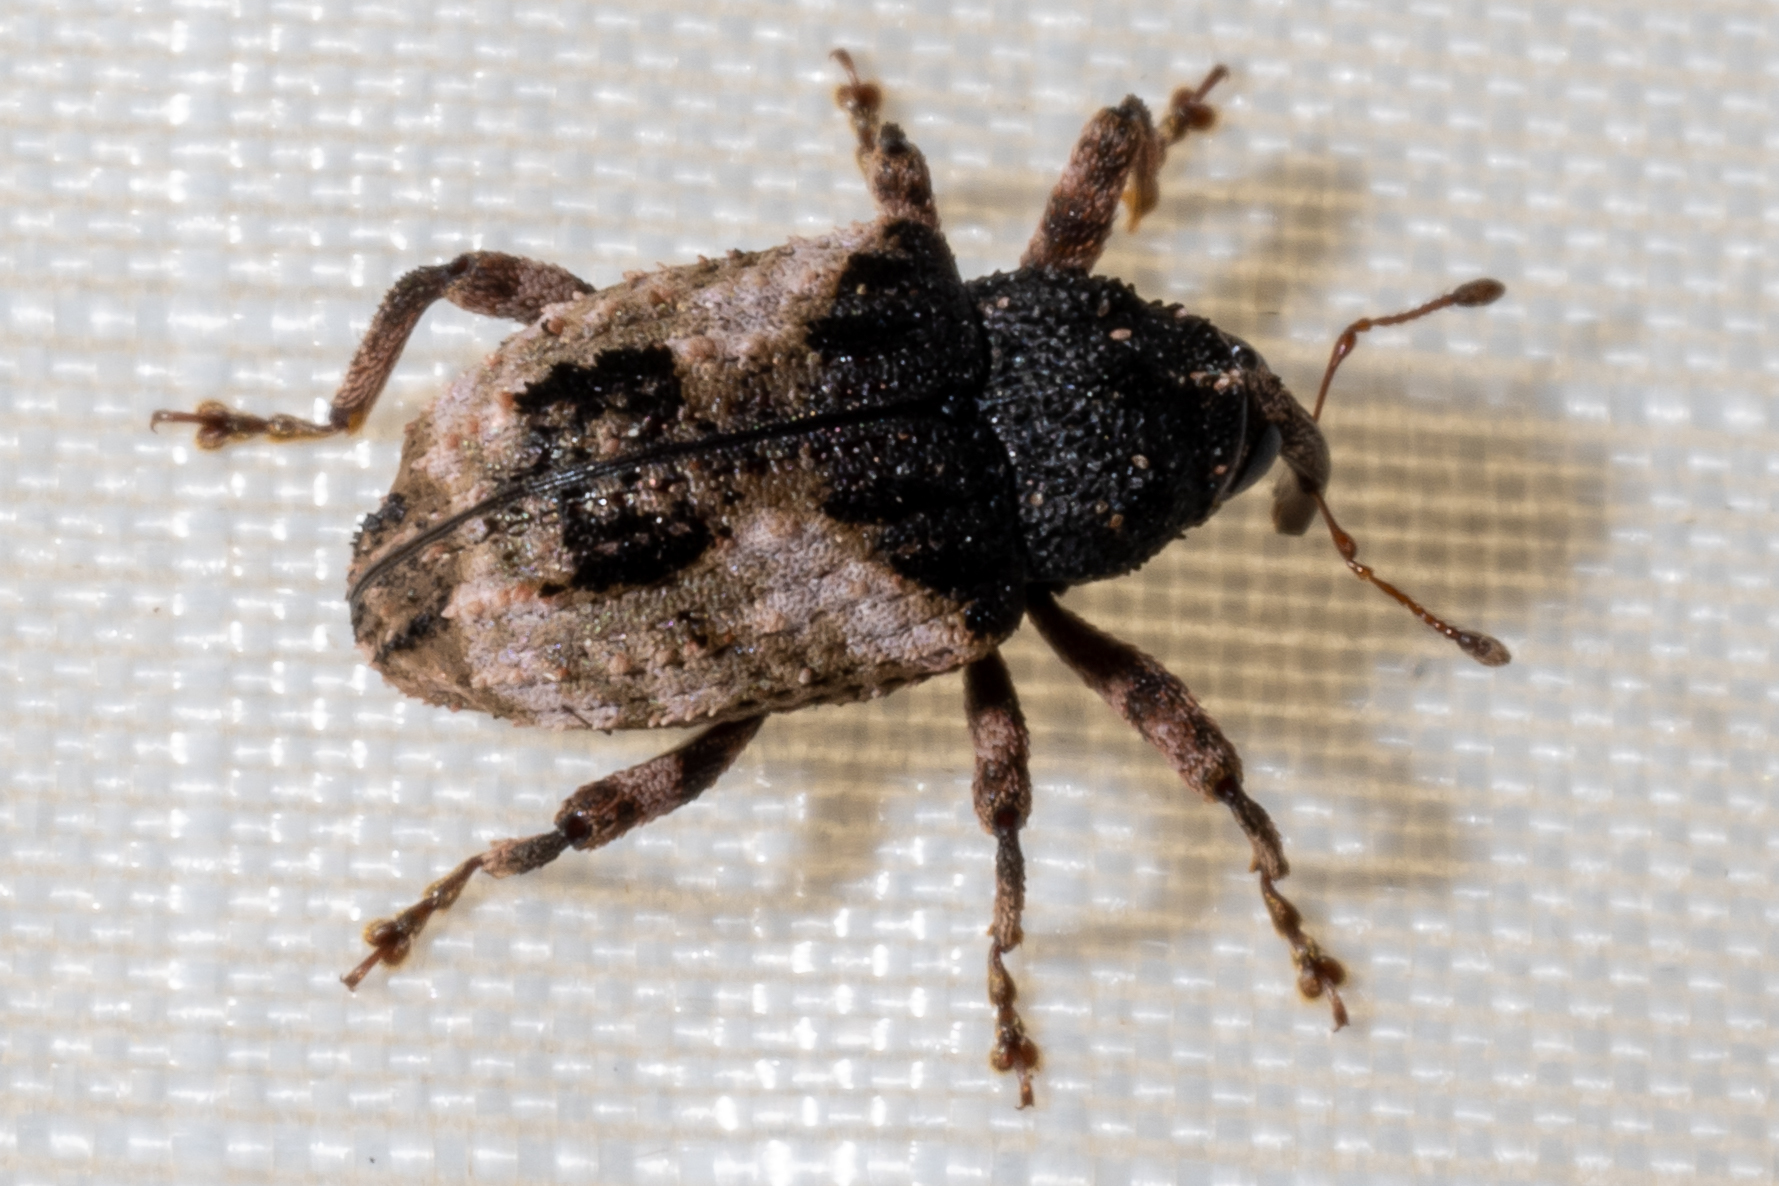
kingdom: Animalia
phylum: Arthropoda
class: Insecta
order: Coleoptera
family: Curculionidae
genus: Cryptorhynchus
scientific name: Cryptorhynchus fuscatus
